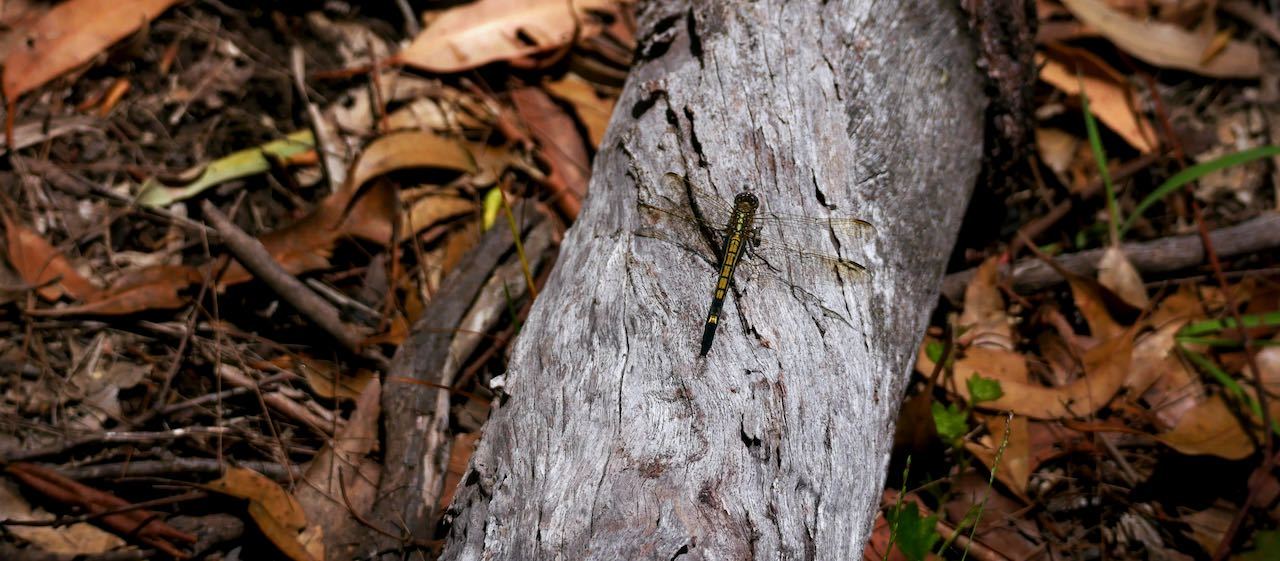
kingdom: Animalia
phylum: Arthropoda
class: Insecta
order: Odonata
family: Libellulidae
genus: Orthetrum
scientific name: Orthetrum caledonicum
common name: Blue skimmer
